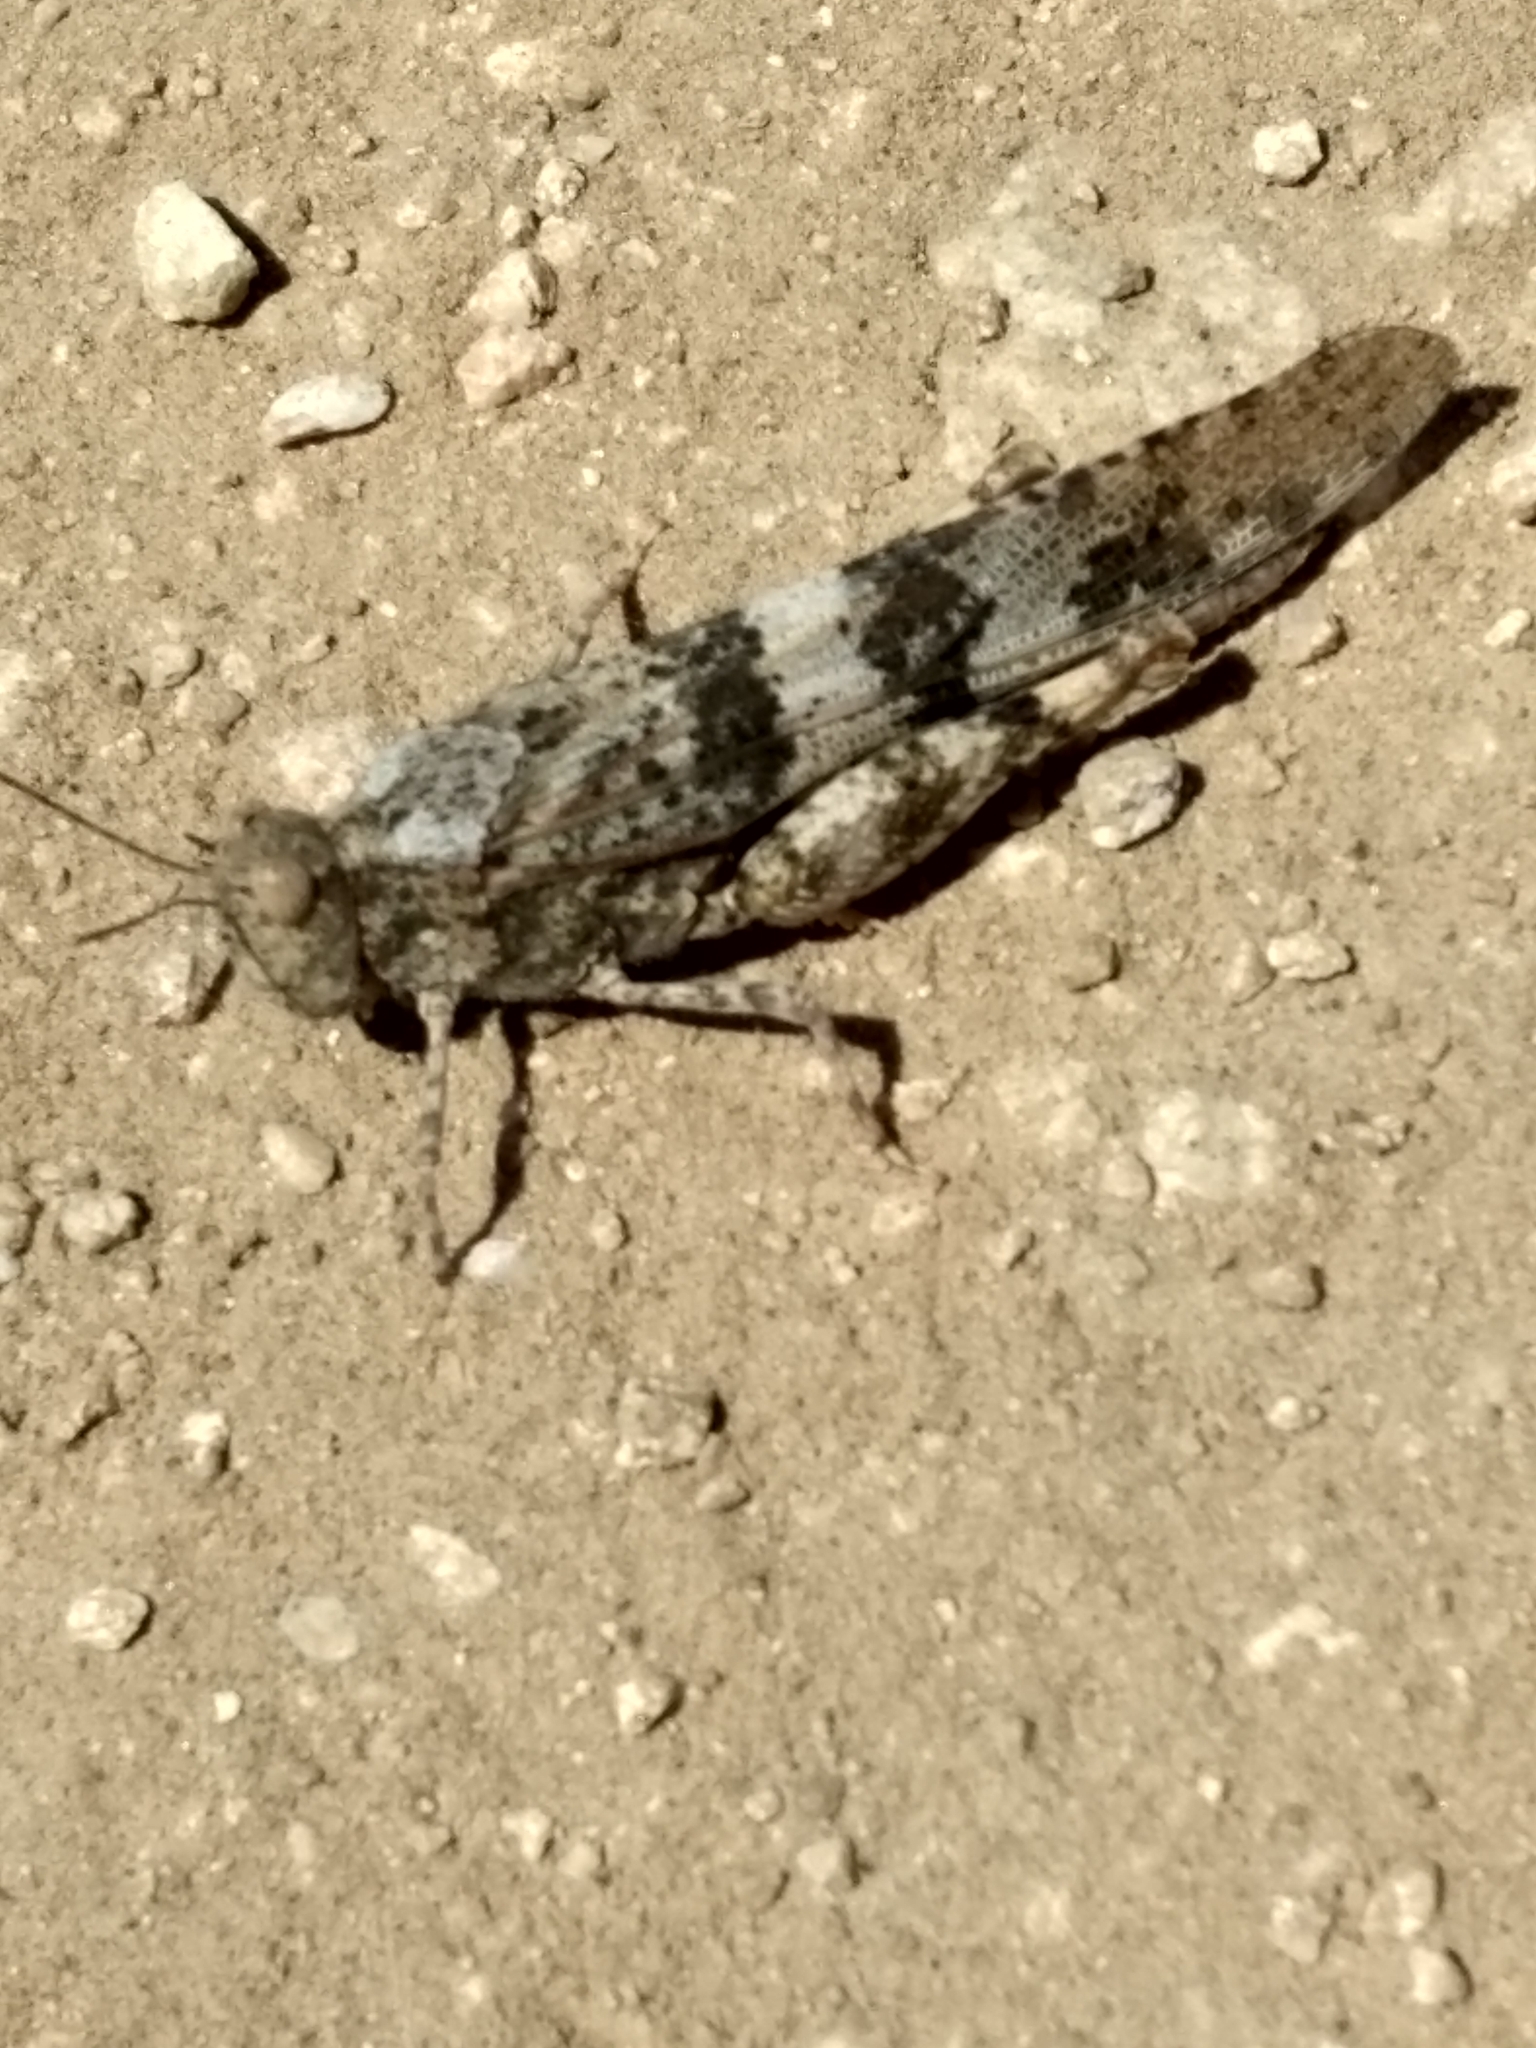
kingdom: Animalia
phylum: Arthropoda
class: Insecta
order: Orthoptera
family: Acrididae
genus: Trimerotropis
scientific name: Trimerotropis pallidipennis
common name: Pallid-winged grasshopper
